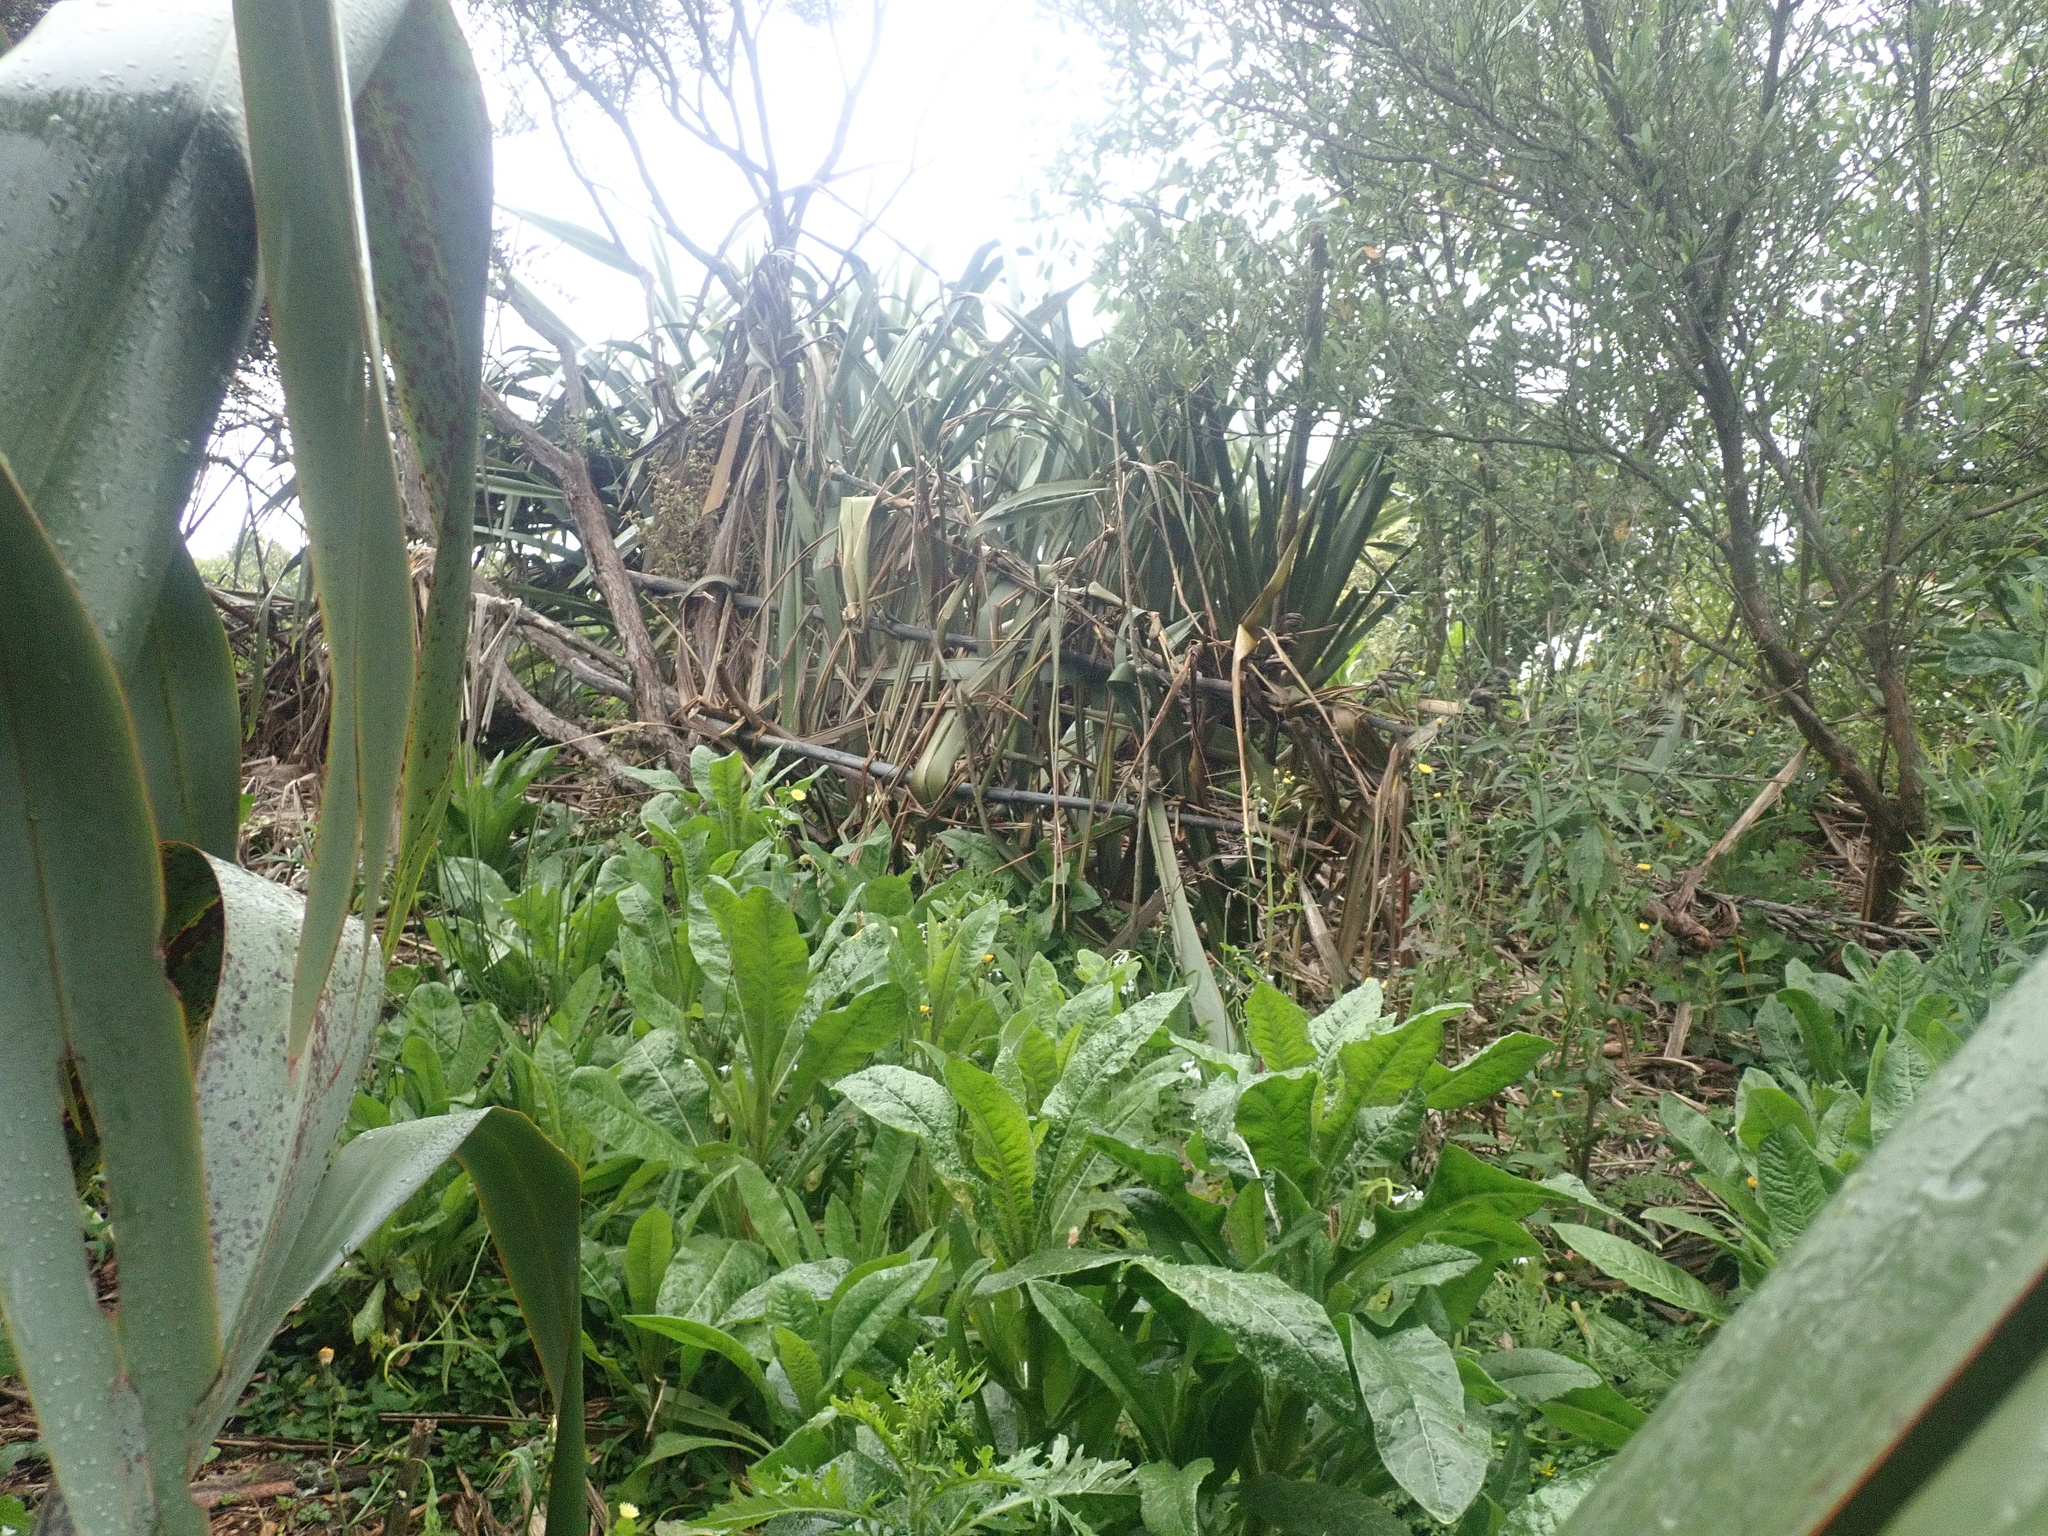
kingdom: Plantae
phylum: Tracheophyta
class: Magnoliopsida
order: Asterales
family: Asteraceae
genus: Helminthotheca
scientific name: Helminthotheca echioides
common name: Ox-tongue
